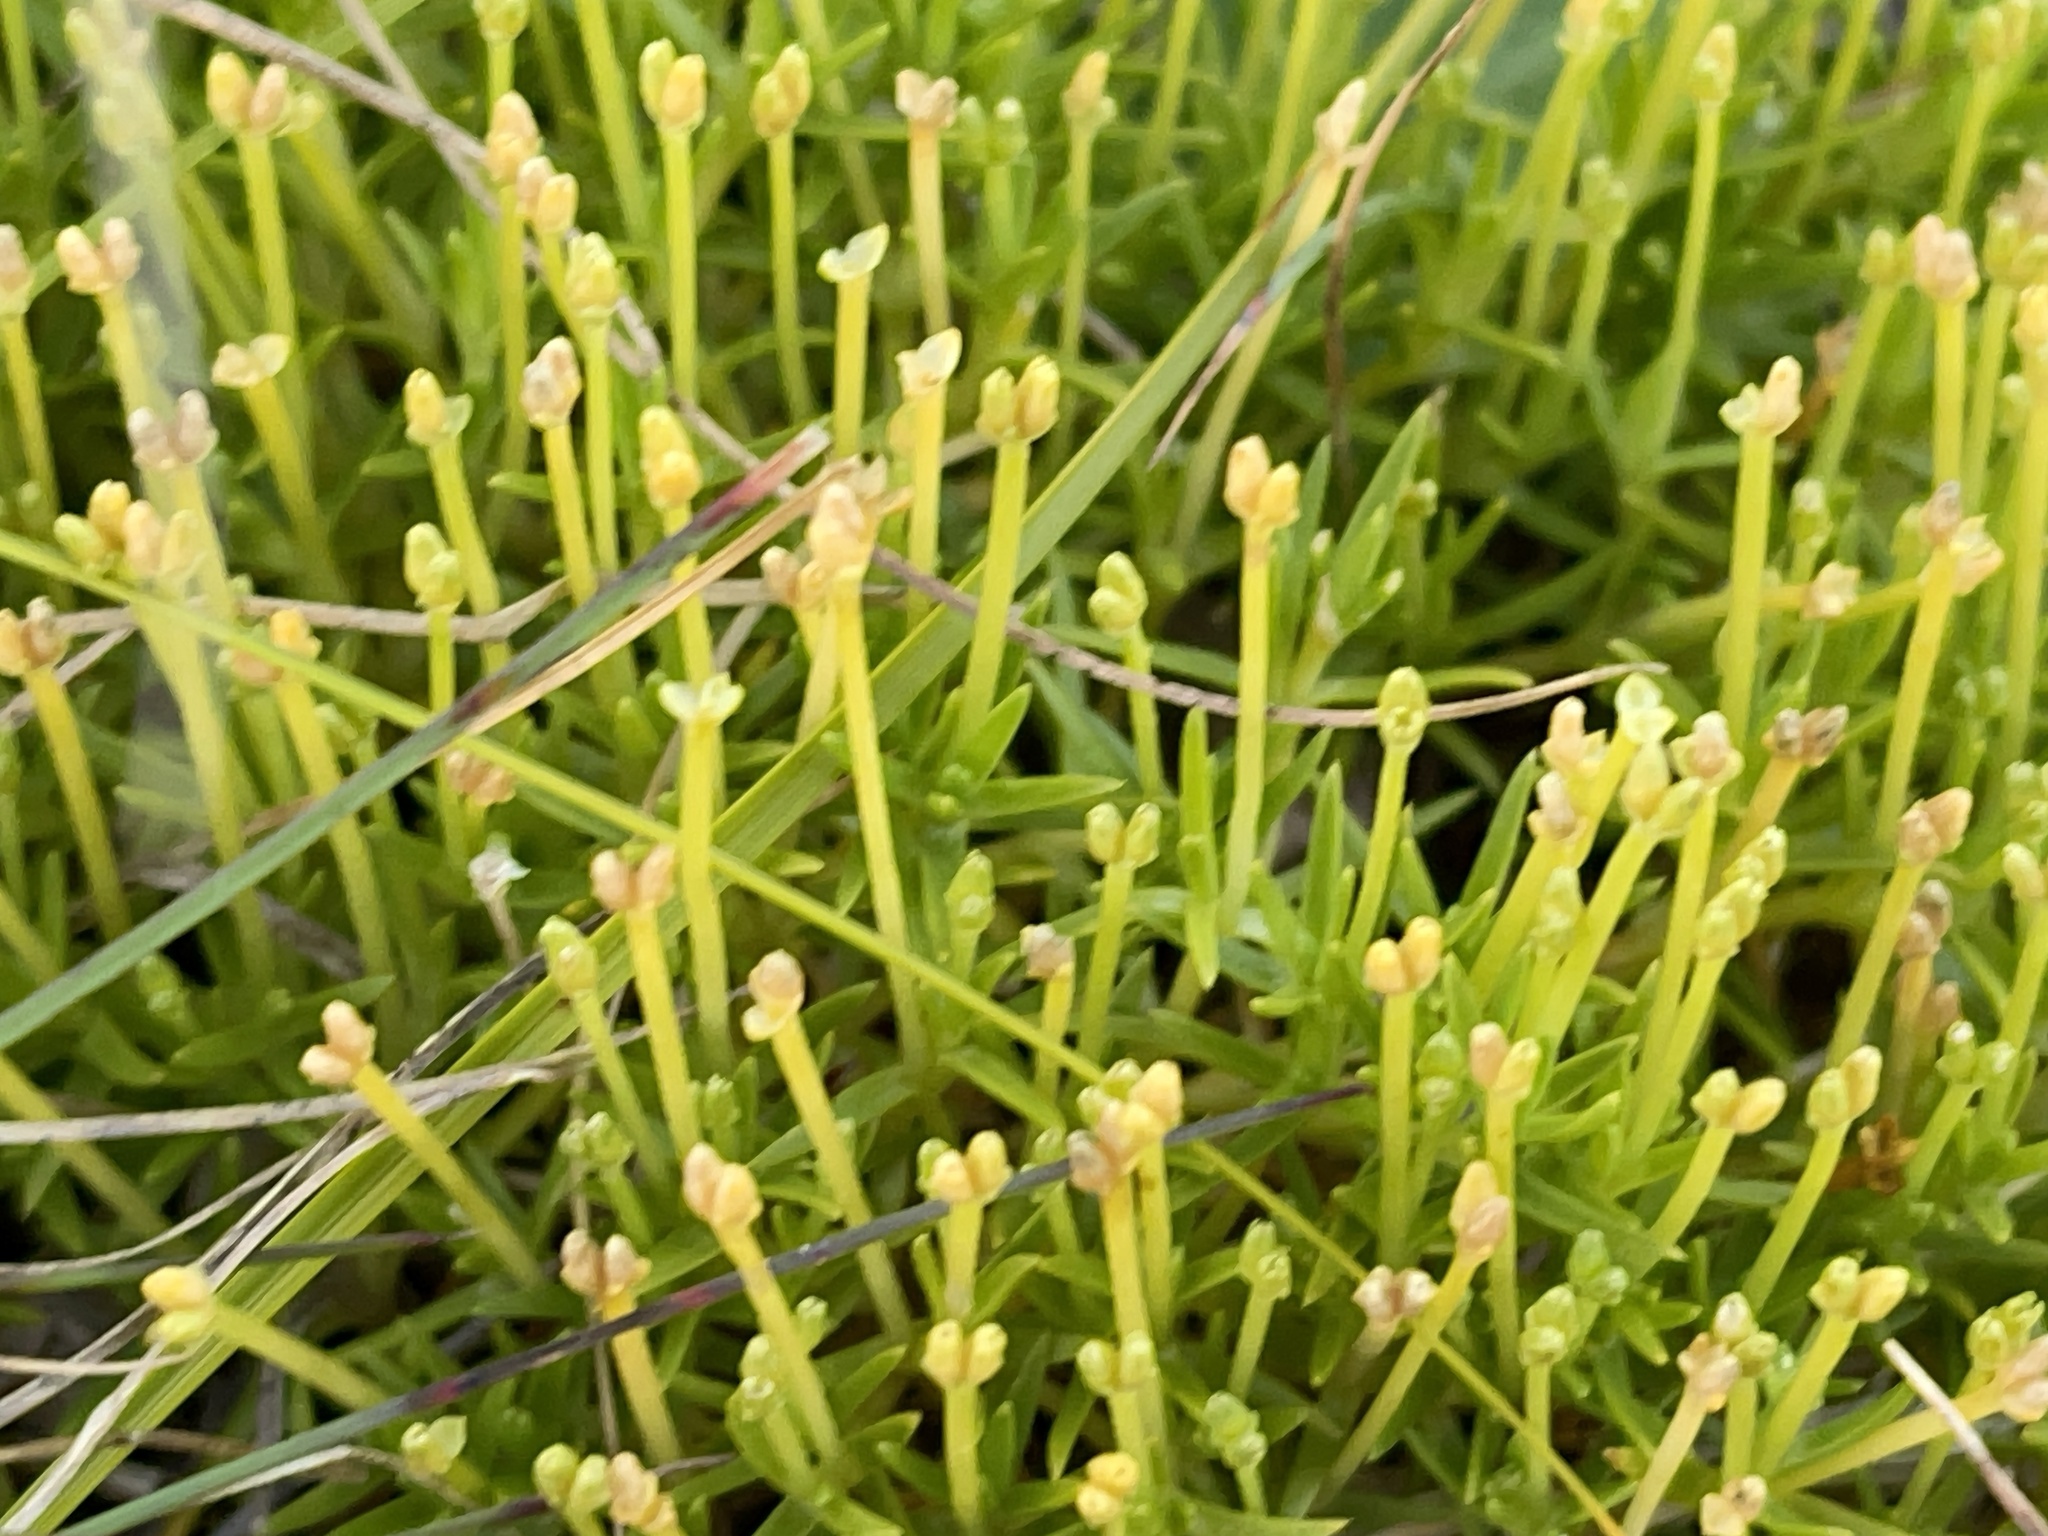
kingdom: Plantae
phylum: Tracheophyta
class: Magnoliopsida
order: Caryophyllales
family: Caryophyllaceae
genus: Scleranthus
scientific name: Scleranthus biflorus
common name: Two-flower knawel
